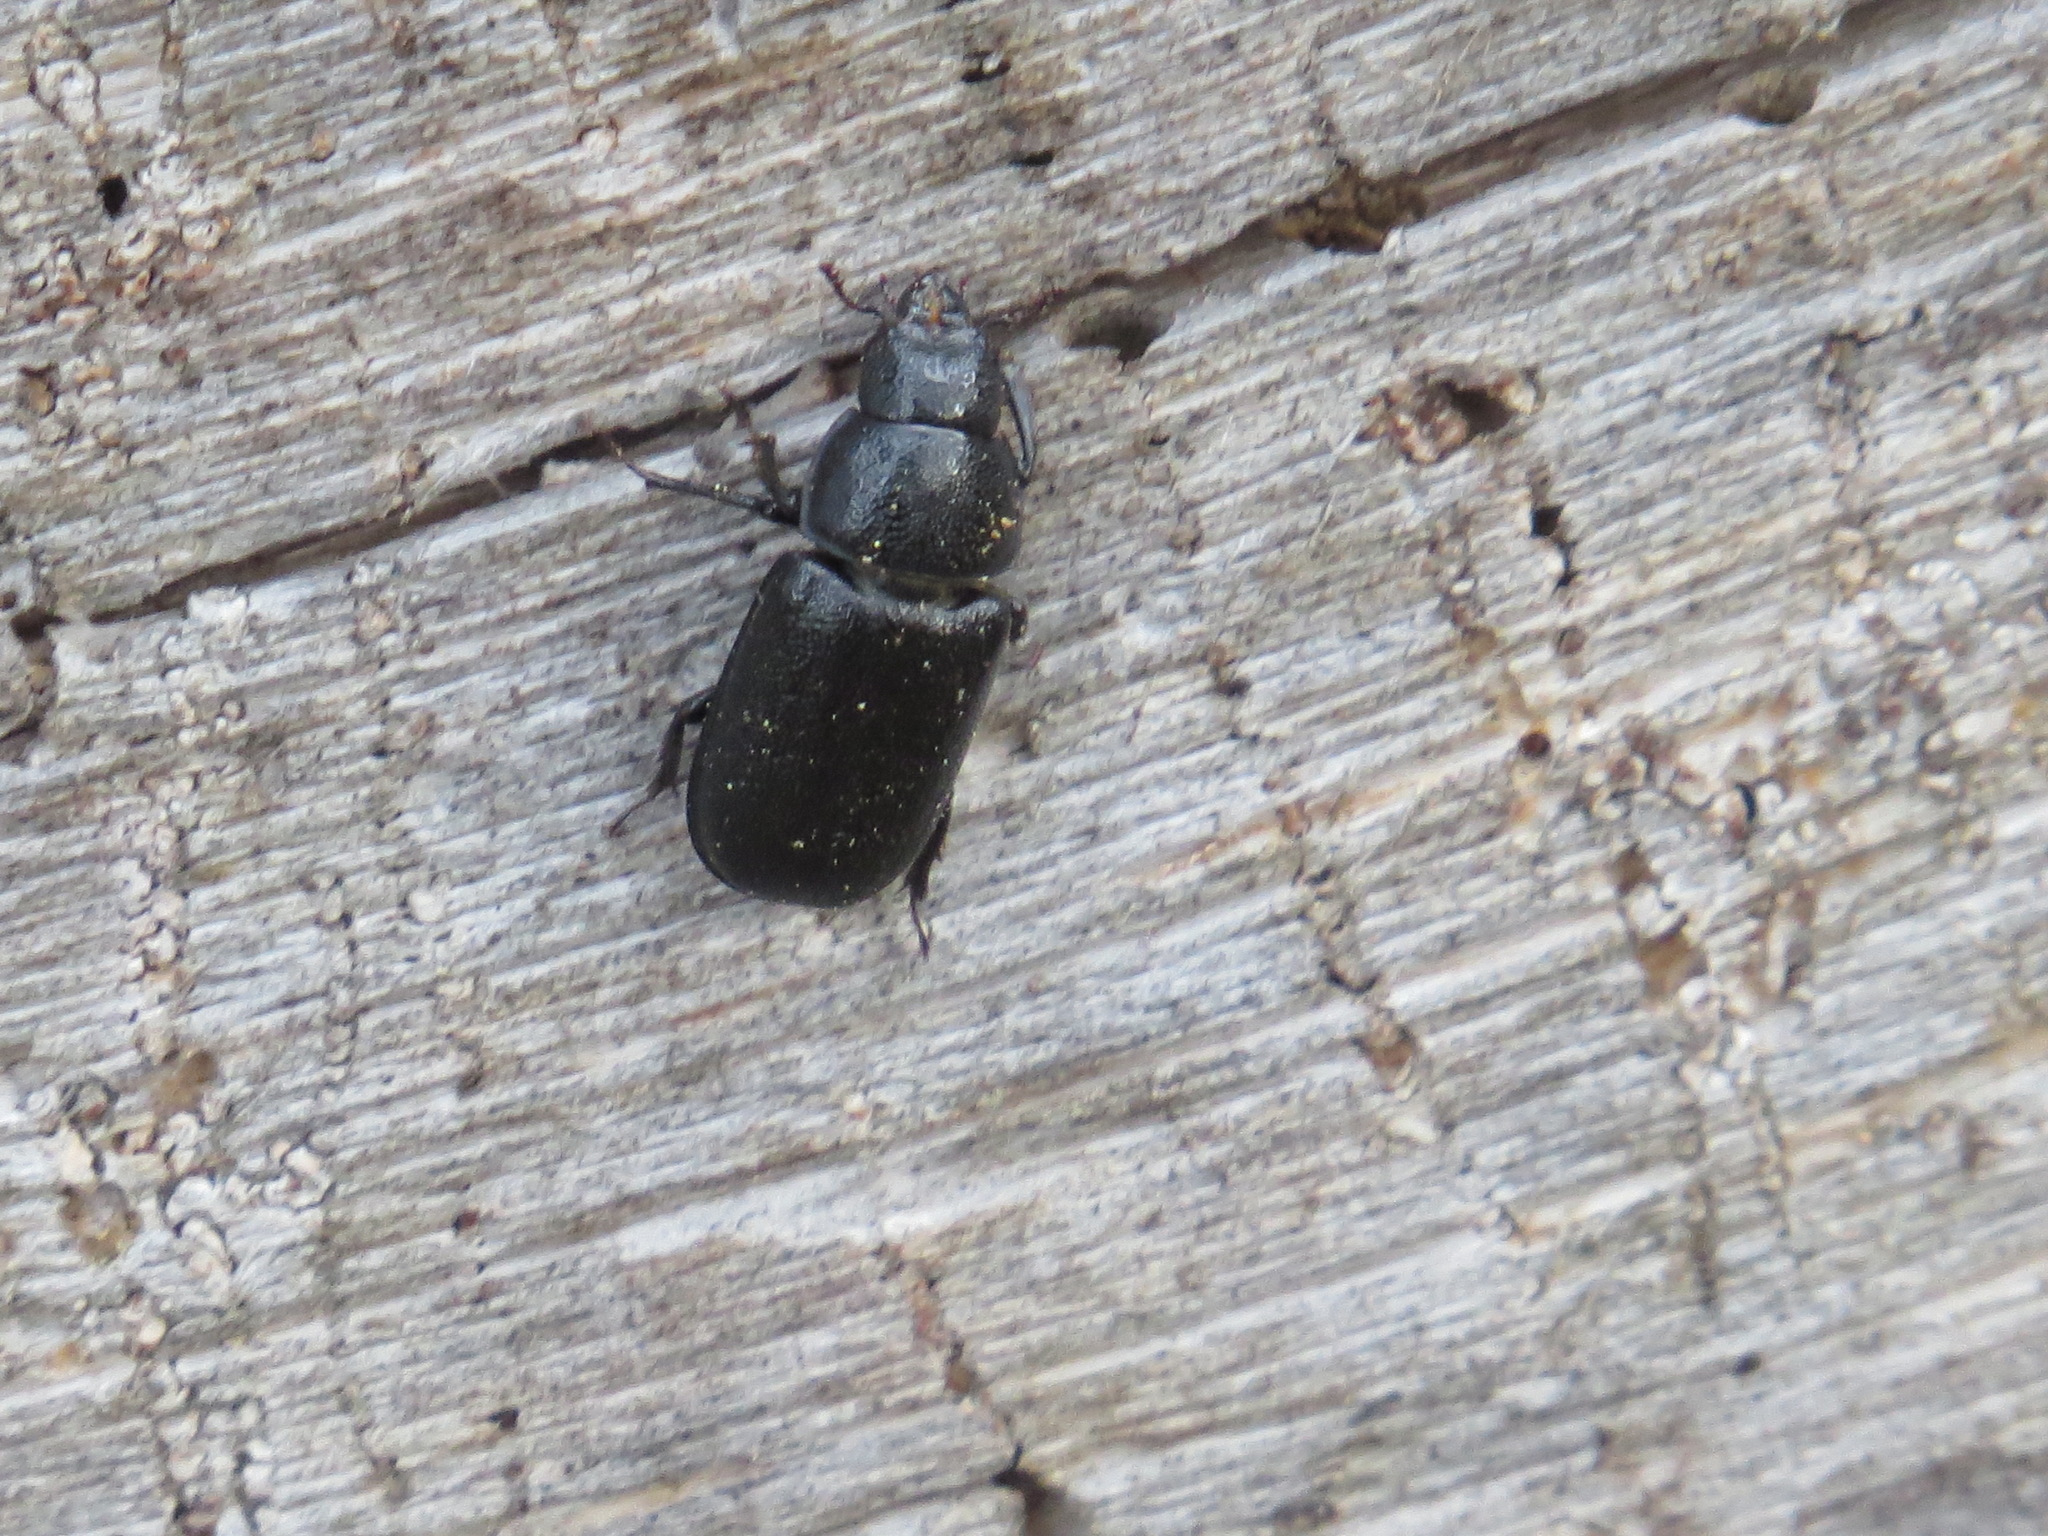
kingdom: Animalia
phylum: Arthropoda
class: Insecta
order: Coleoptera
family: Lucanidae
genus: Ceruchus
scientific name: Ceruchus punctatus
